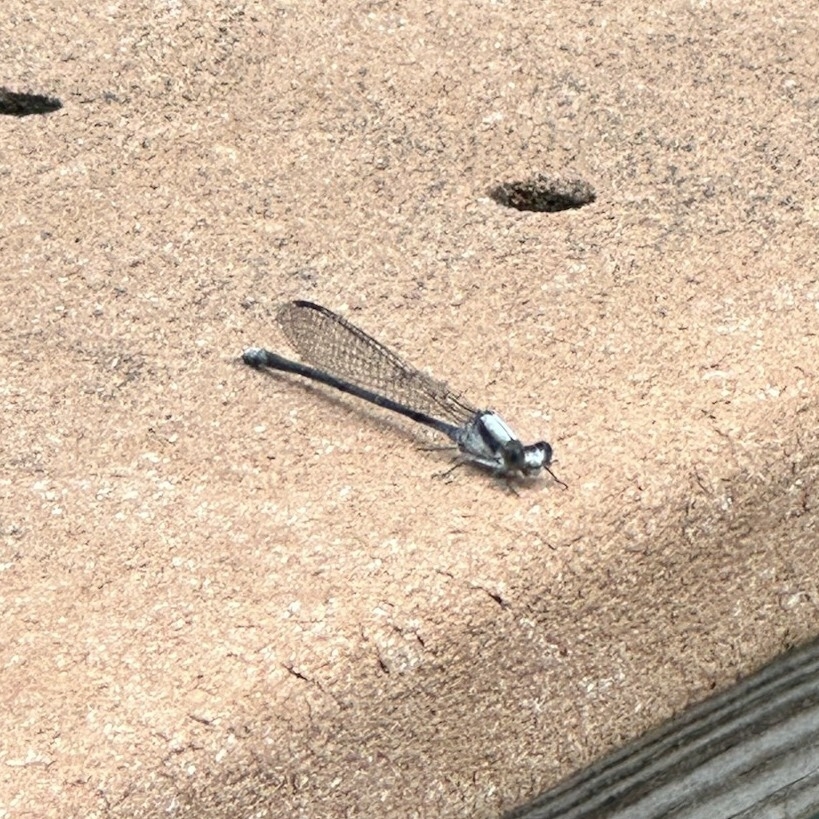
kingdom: Animalia
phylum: Arthropoda
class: Insecta
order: Odonata
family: Coenagrionidae
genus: Argia
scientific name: Argia moesta
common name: Powdered dancer
